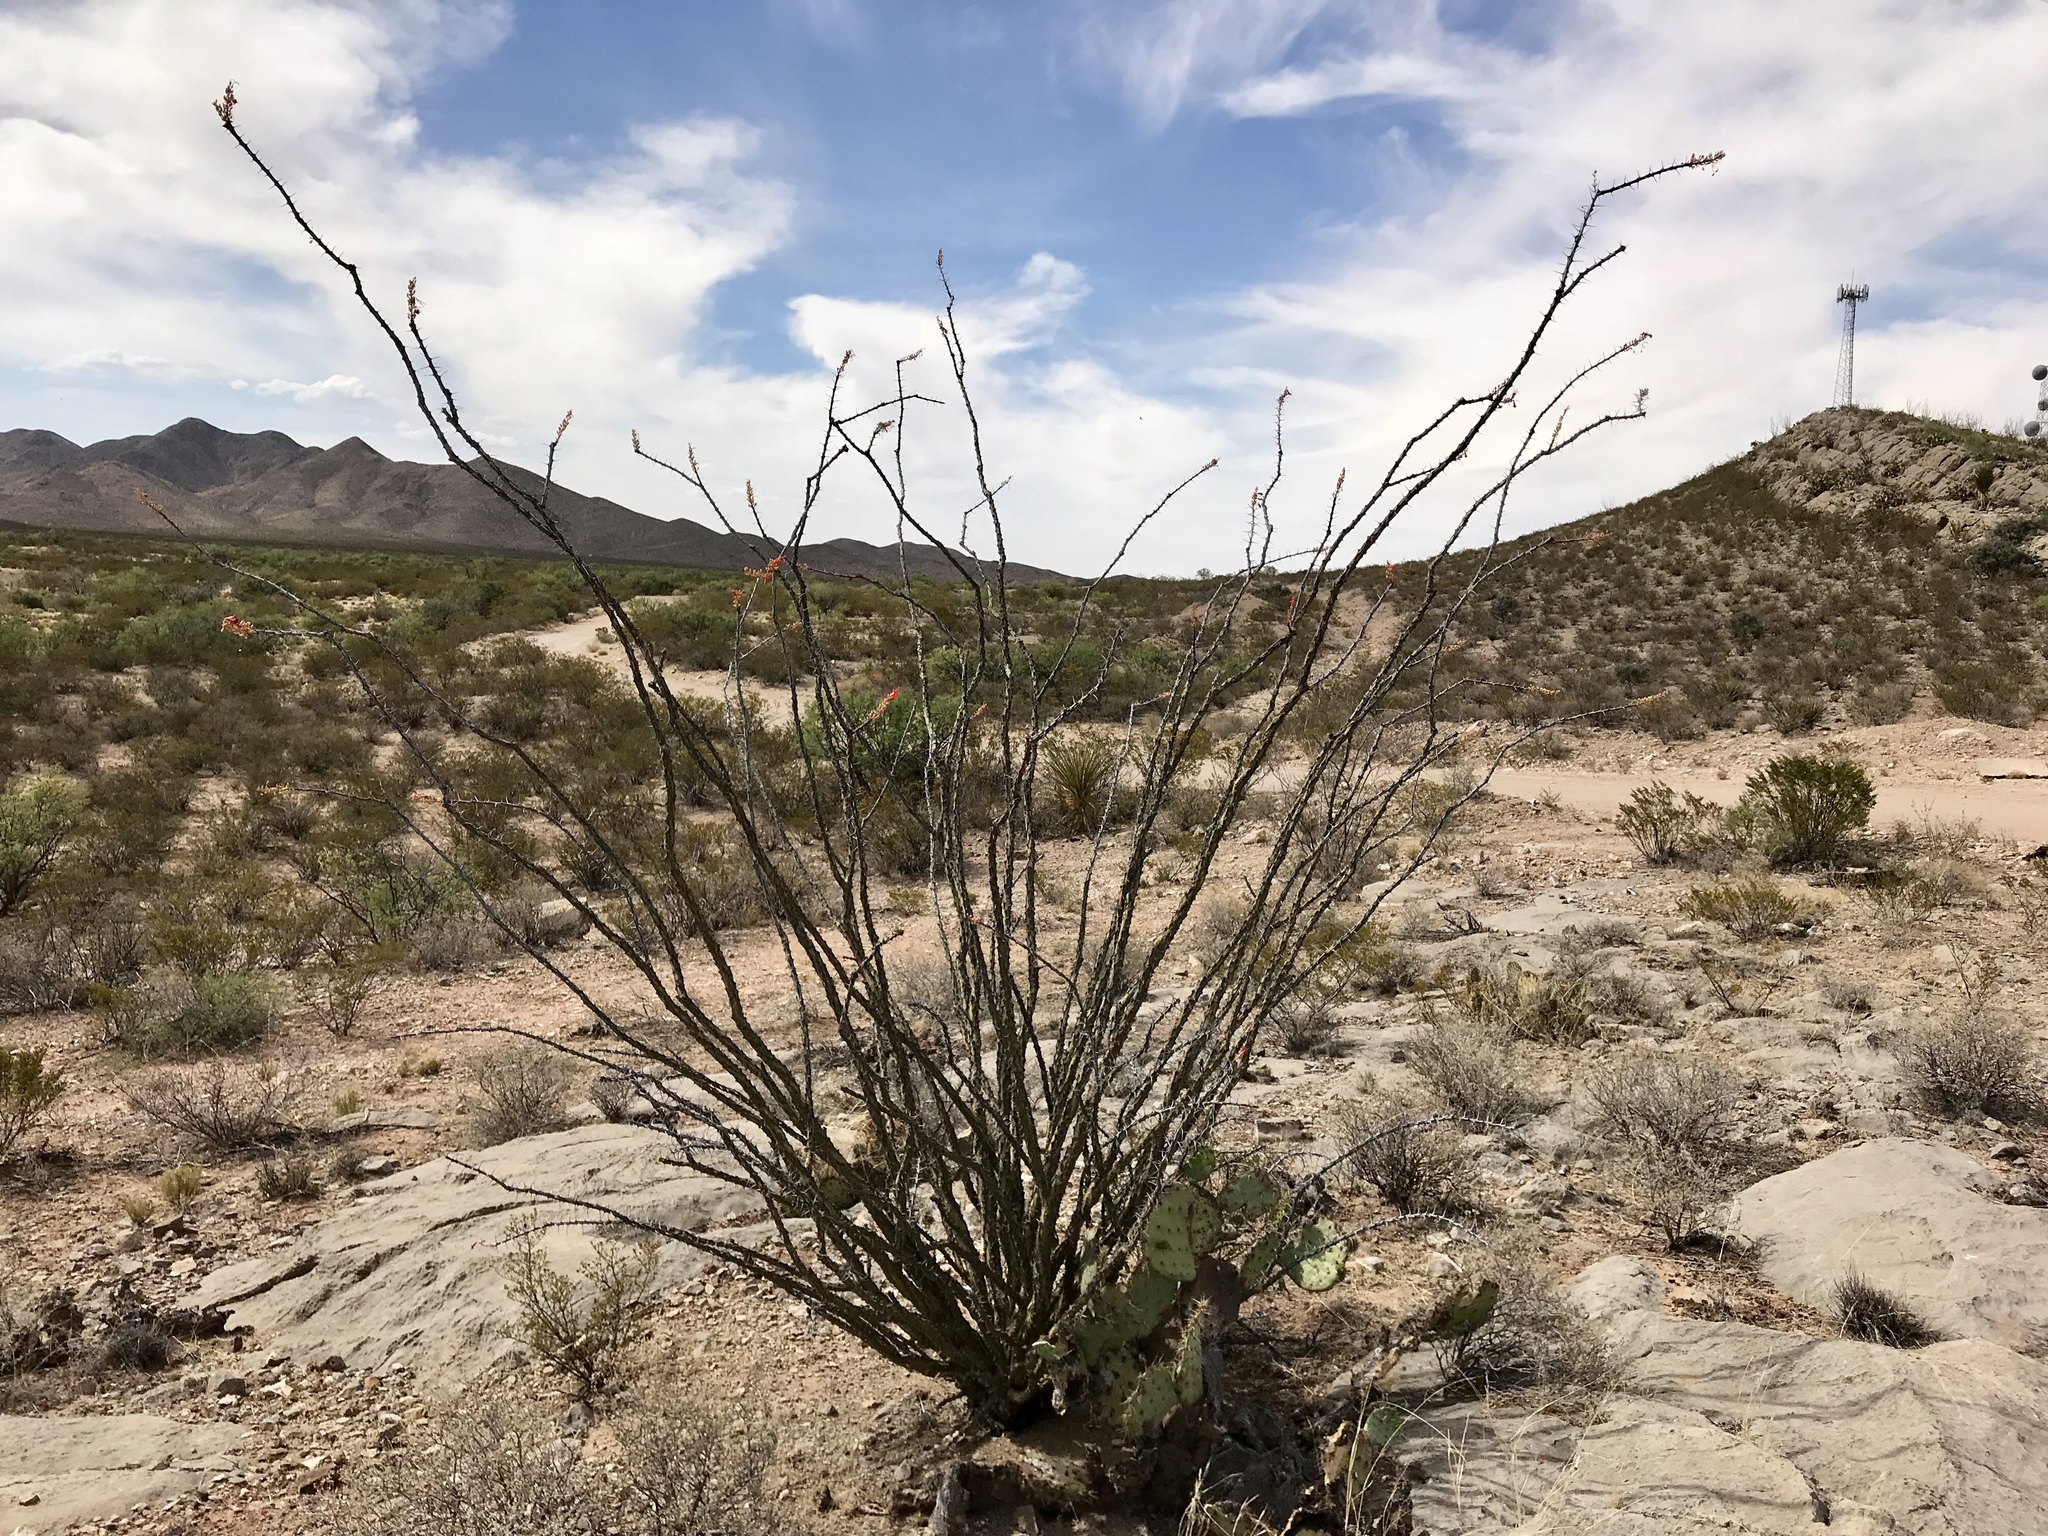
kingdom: Plantae
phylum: Tracheophyta
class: Magnoliopsida
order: Ericales
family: Fouquieriaceae
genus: Fouquieria
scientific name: Fouquieria splendens
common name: Vine-cactus
